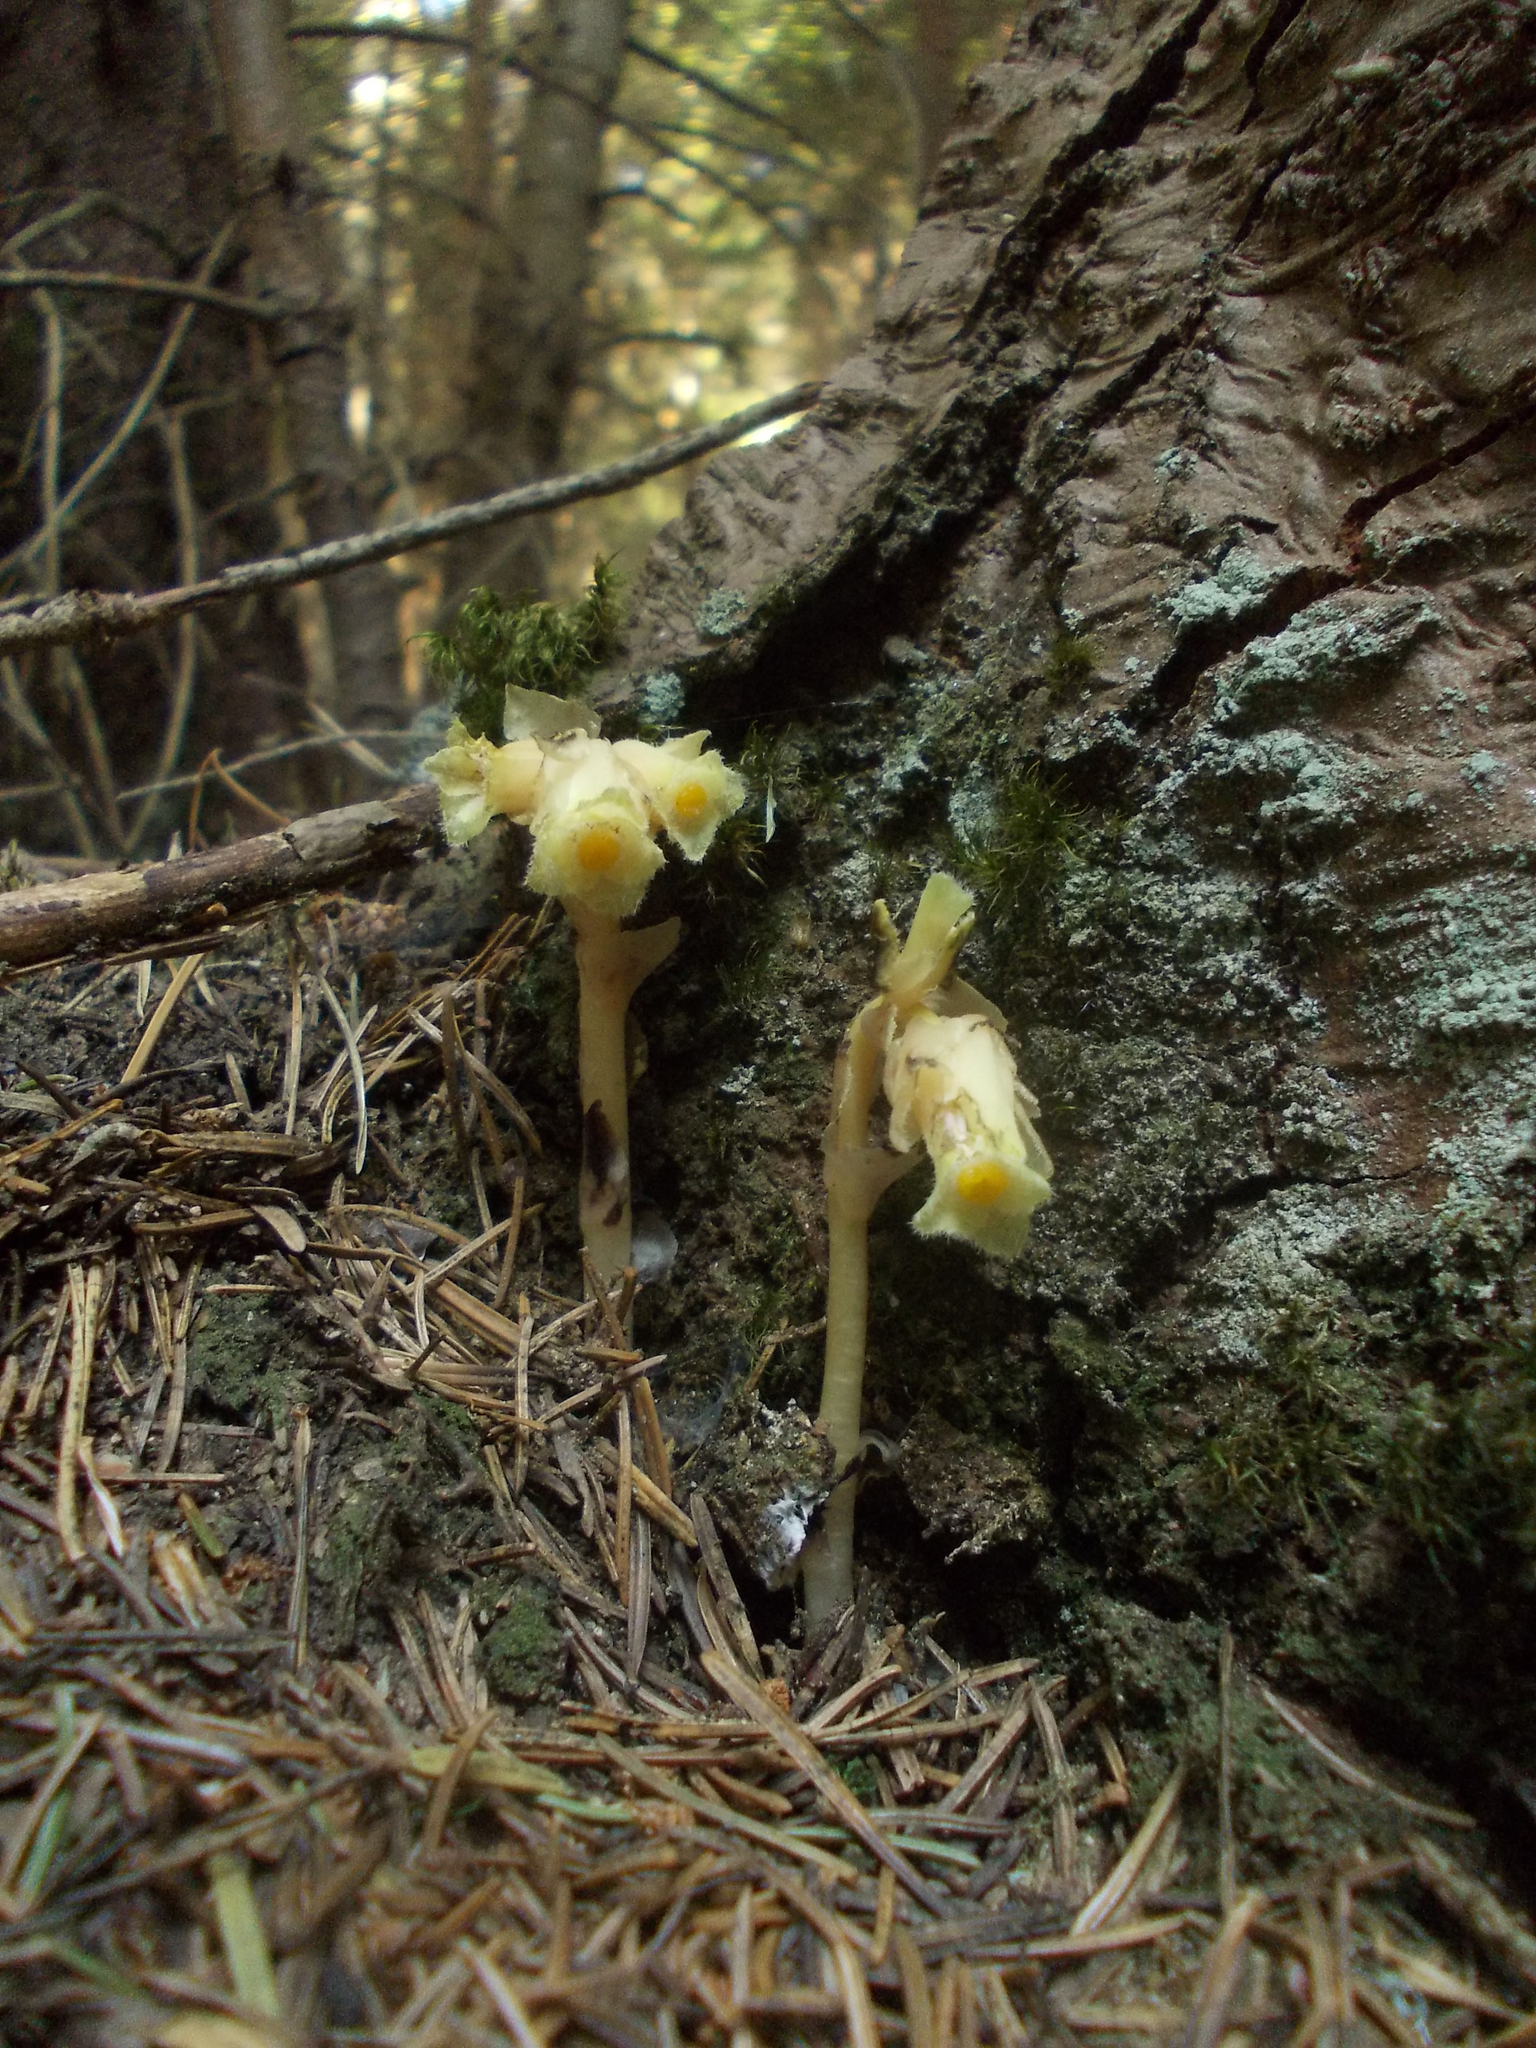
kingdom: Plantae
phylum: Tracheophyta
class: Magnoliopsida
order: Ericales
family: Ericaceae
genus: Hypopitys
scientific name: Hypopitys monotropa
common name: Yellow bird's-nest
